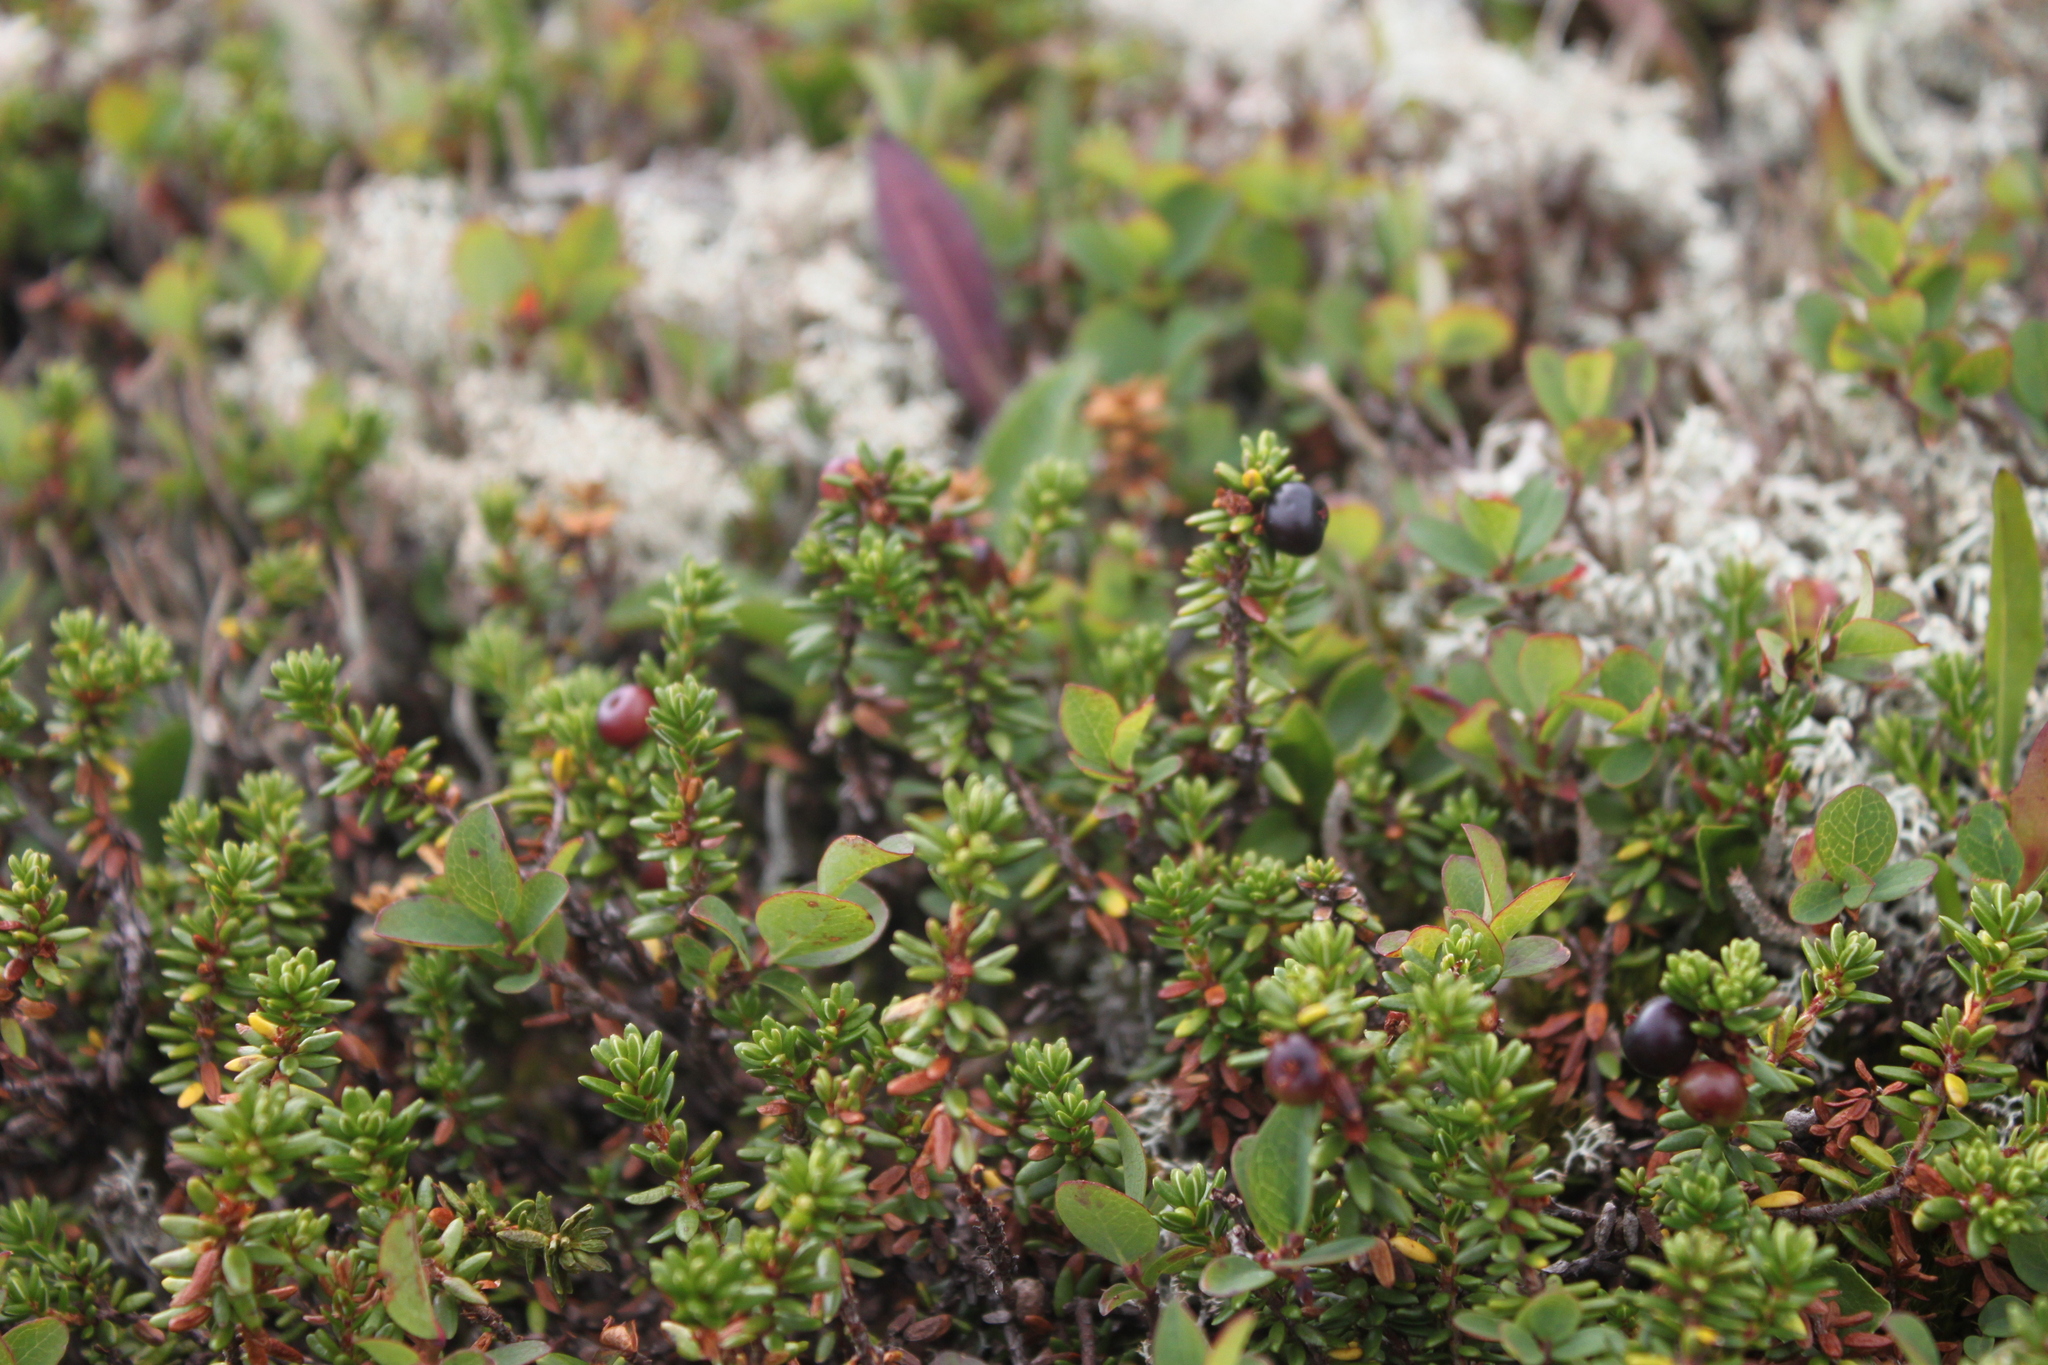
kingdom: Plantae
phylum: Tracheophyta
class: Magnoliopsida
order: Ericales
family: Ericaceae
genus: Empetrum
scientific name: Empetrum nigrum
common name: Black crowberry
